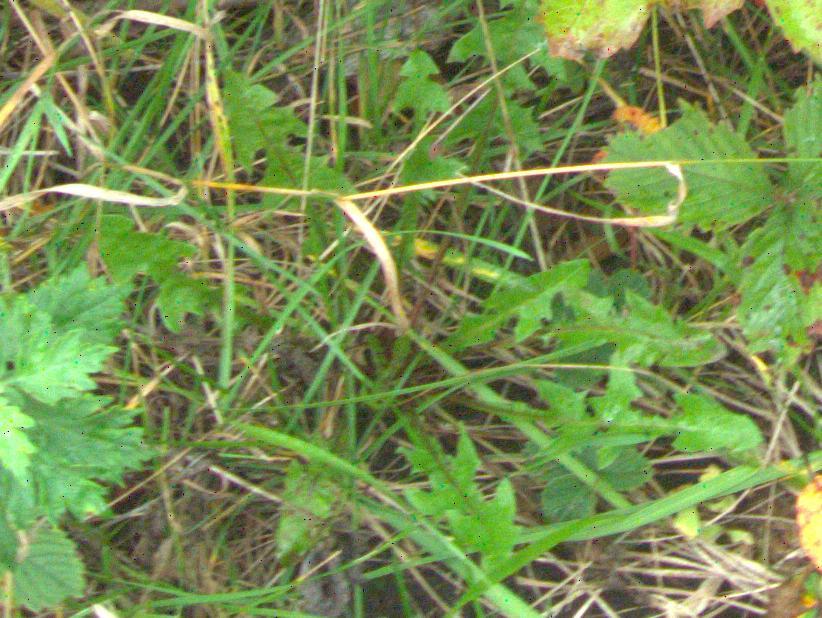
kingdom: Plantae
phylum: Tracheophyta
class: Magnoliopsida
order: Asterales
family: Asteraceae
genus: Taraxacum
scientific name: Taraxacum officinale
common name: Common dandelion
